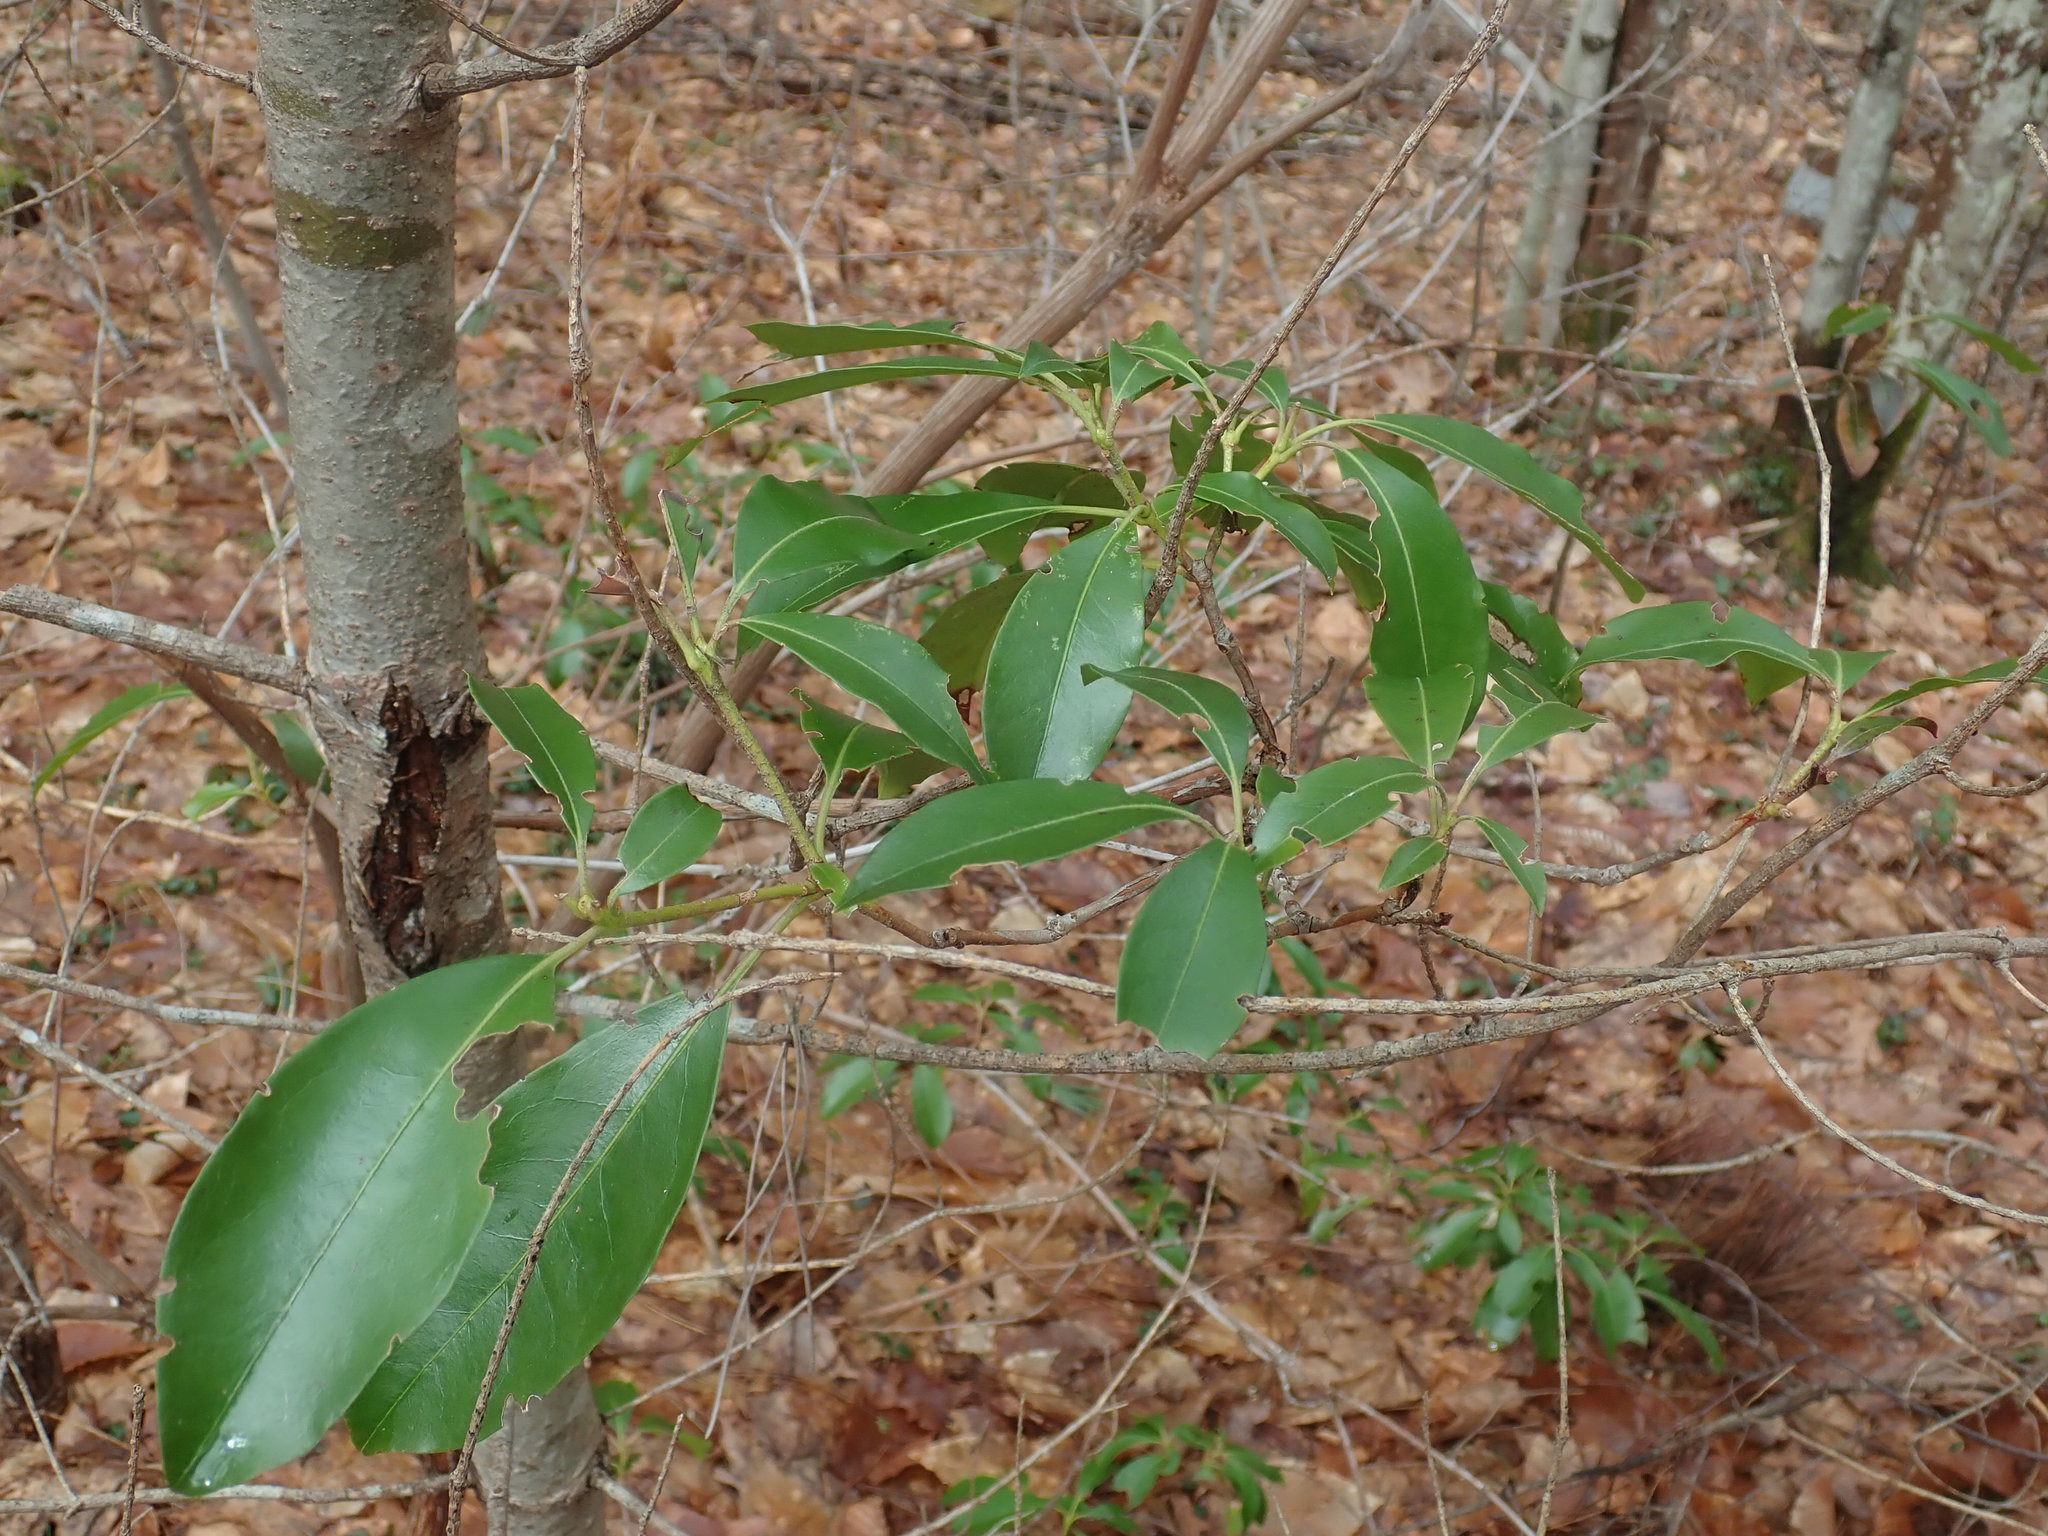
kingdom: Plantae
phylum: Tracheophyta
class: Magnoliopsida
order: Ericales
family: Ericaceae
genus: Kalmia
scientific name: Kalmia latifolia
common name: Mountain-laurel
